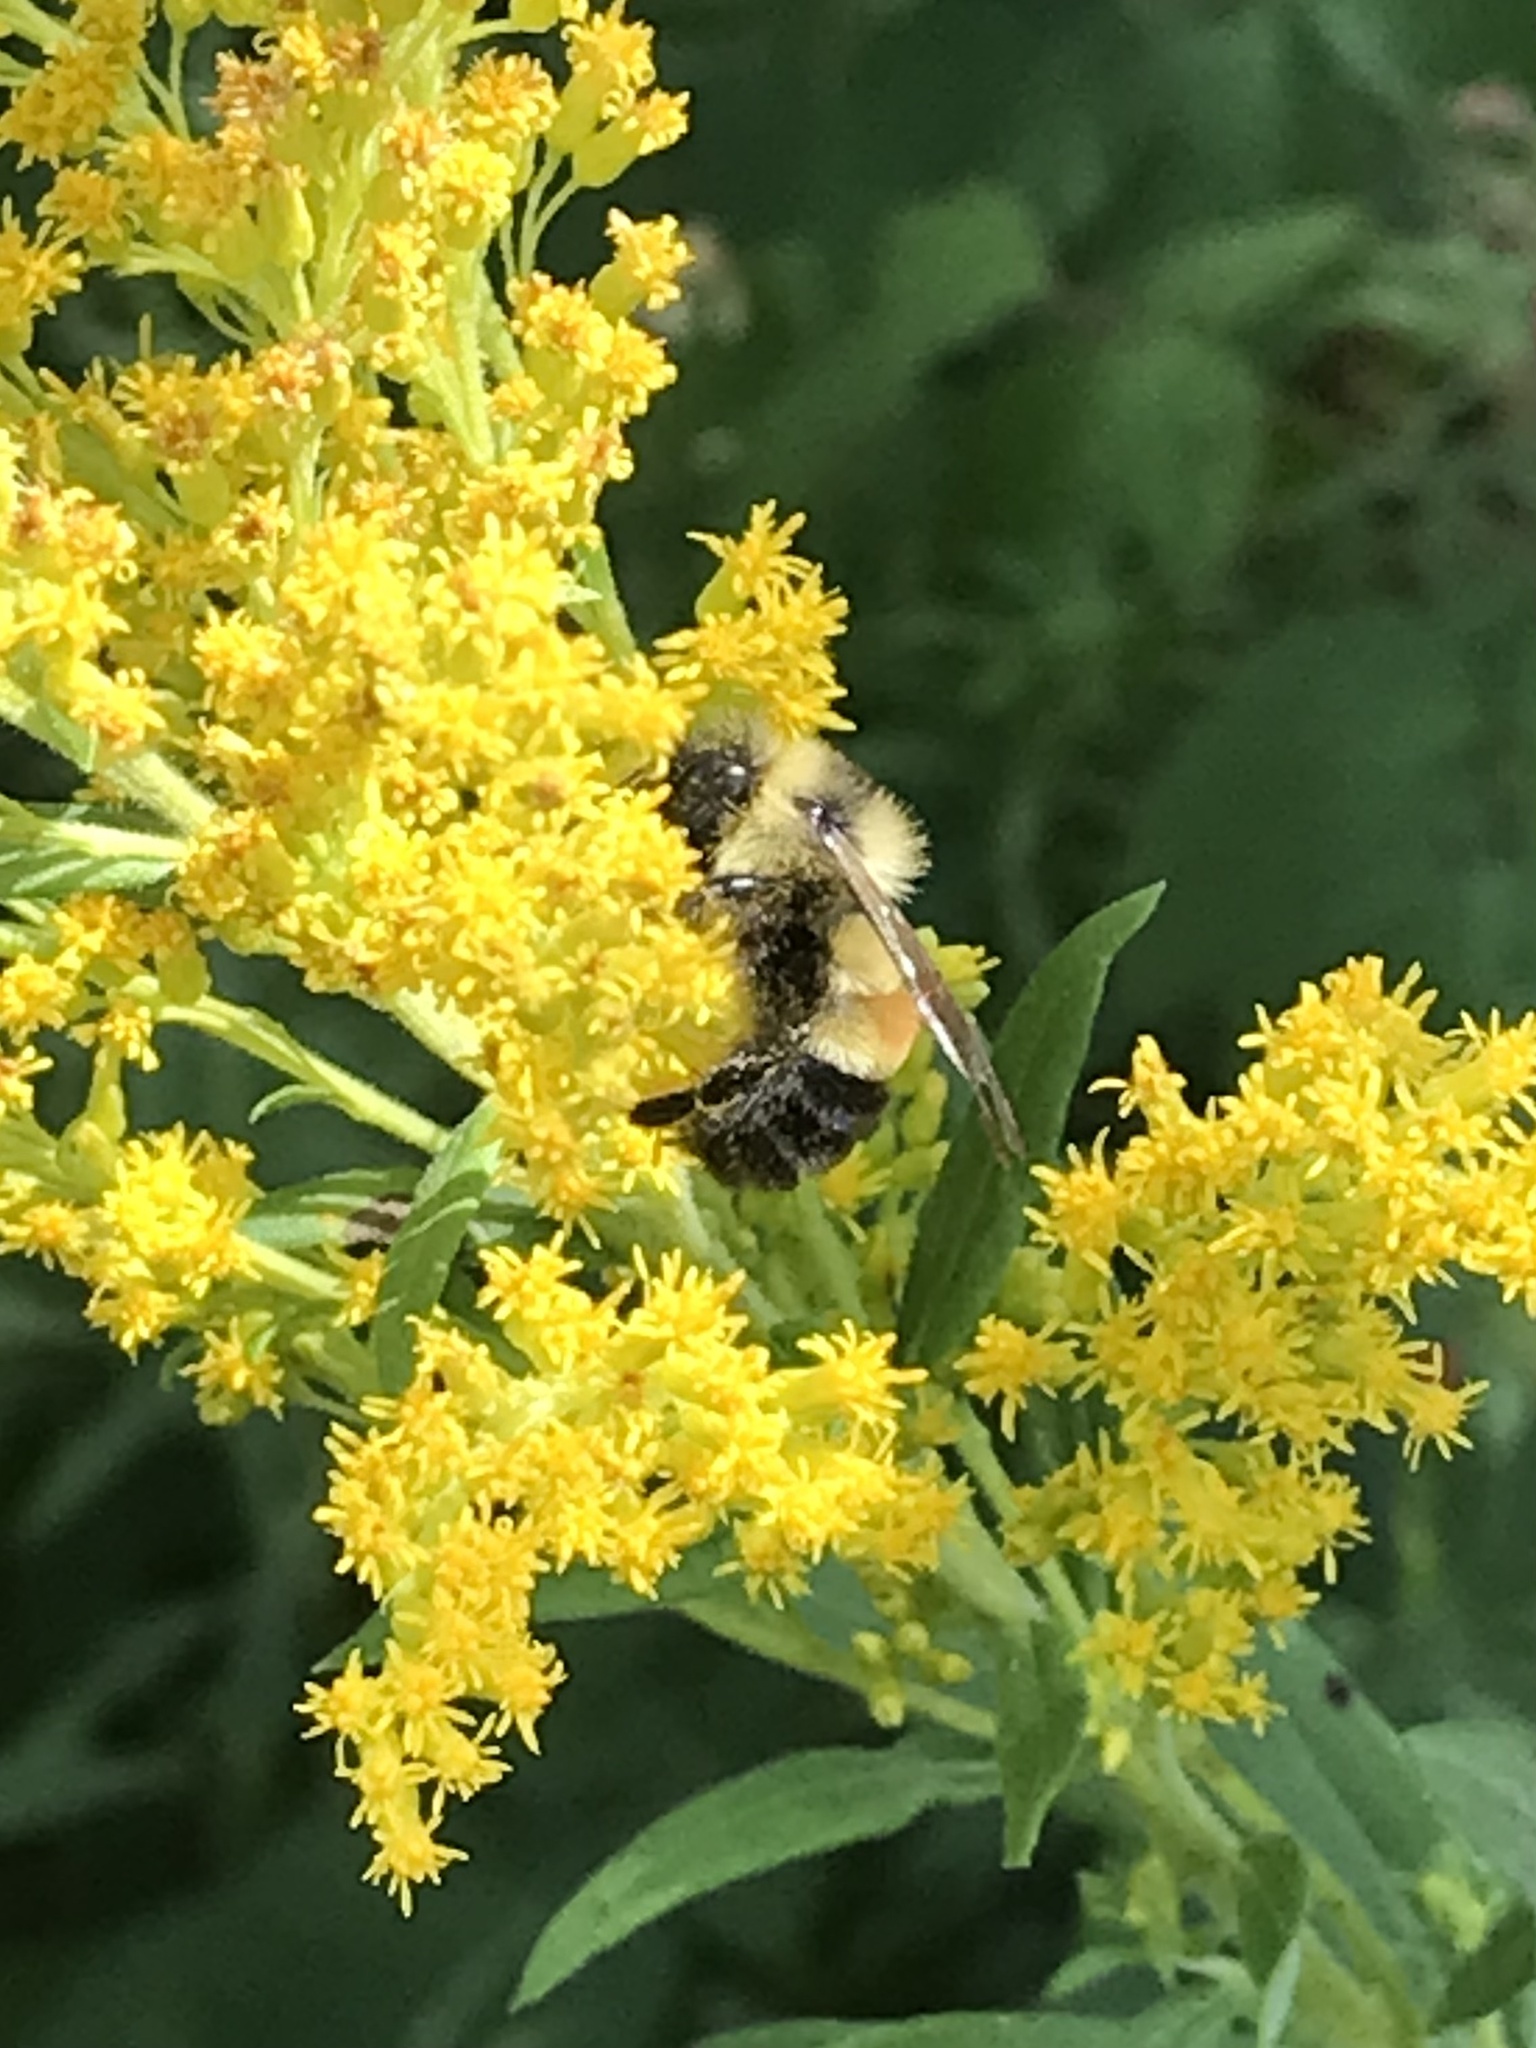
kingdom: Animalia
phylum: Arthropoda
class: Insecta
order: Hymenoptera
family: Apidae
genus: Bombus
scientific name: Bombus affinis
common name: Rusty patched bumble bee
